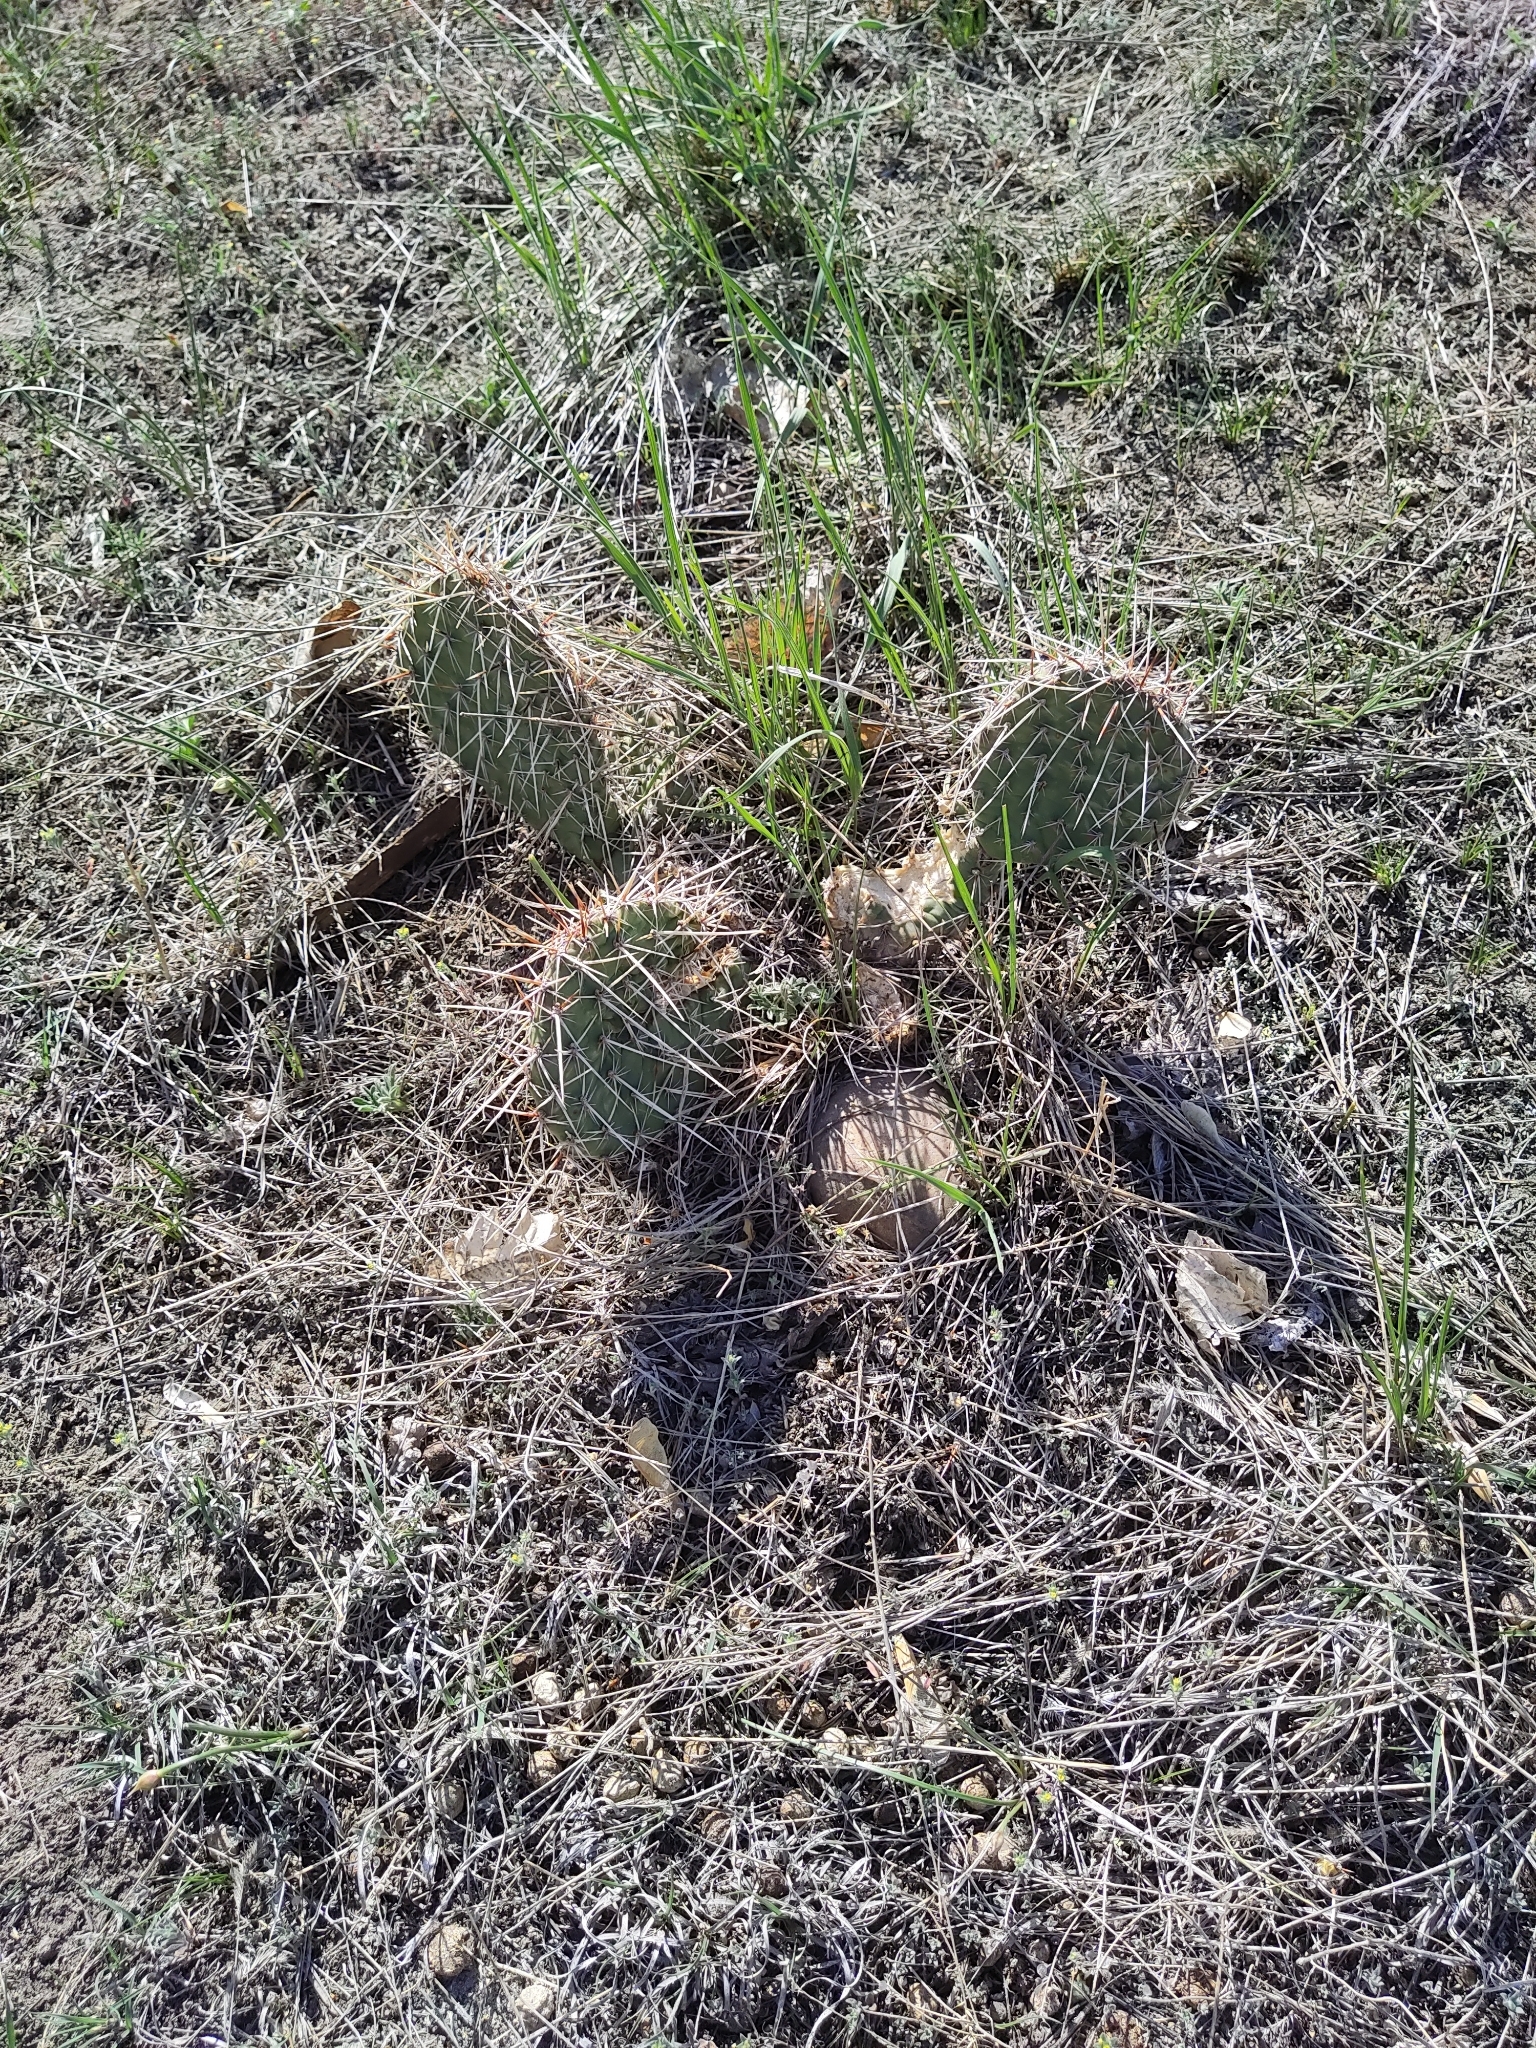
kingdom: Plantae
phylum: Tracheophyta
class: Magnoliopsida
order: Caryophyllales
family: Cactaceae
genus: Opuntia
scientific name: Opuntia polyacantha
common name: Plains prickly-pear
